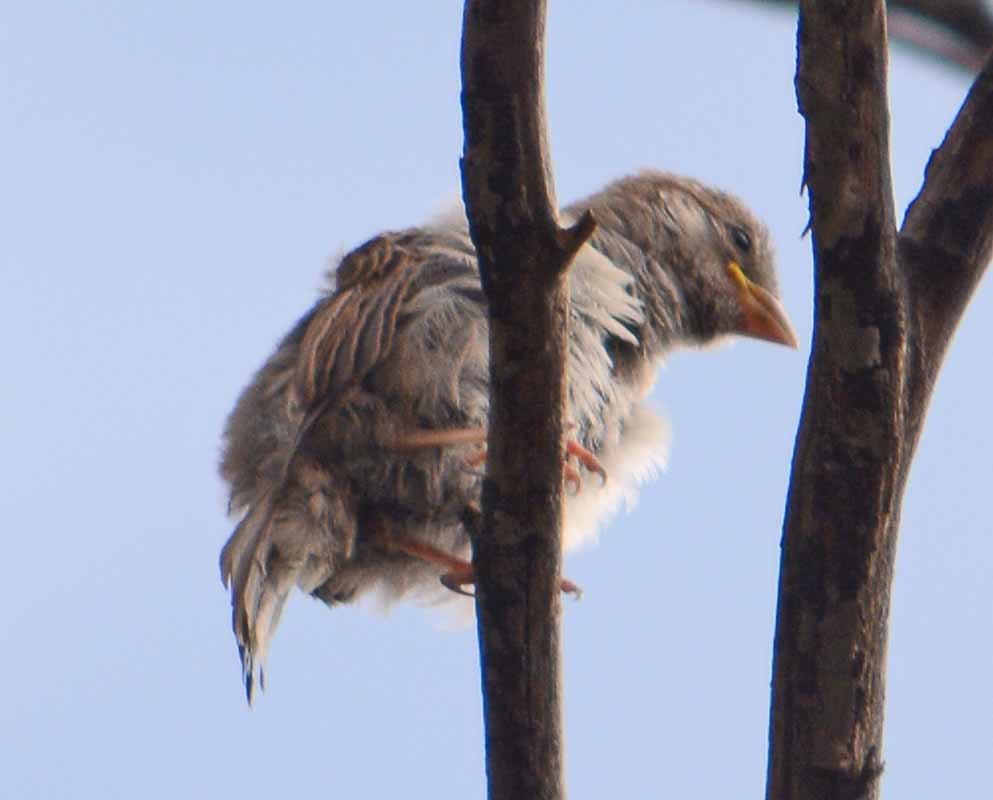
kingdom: Animalia
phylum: Chordata
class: Aves
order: Passeriformes
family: Passeridae
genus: Passer
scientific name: Passer domesticus
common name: House sparrow
